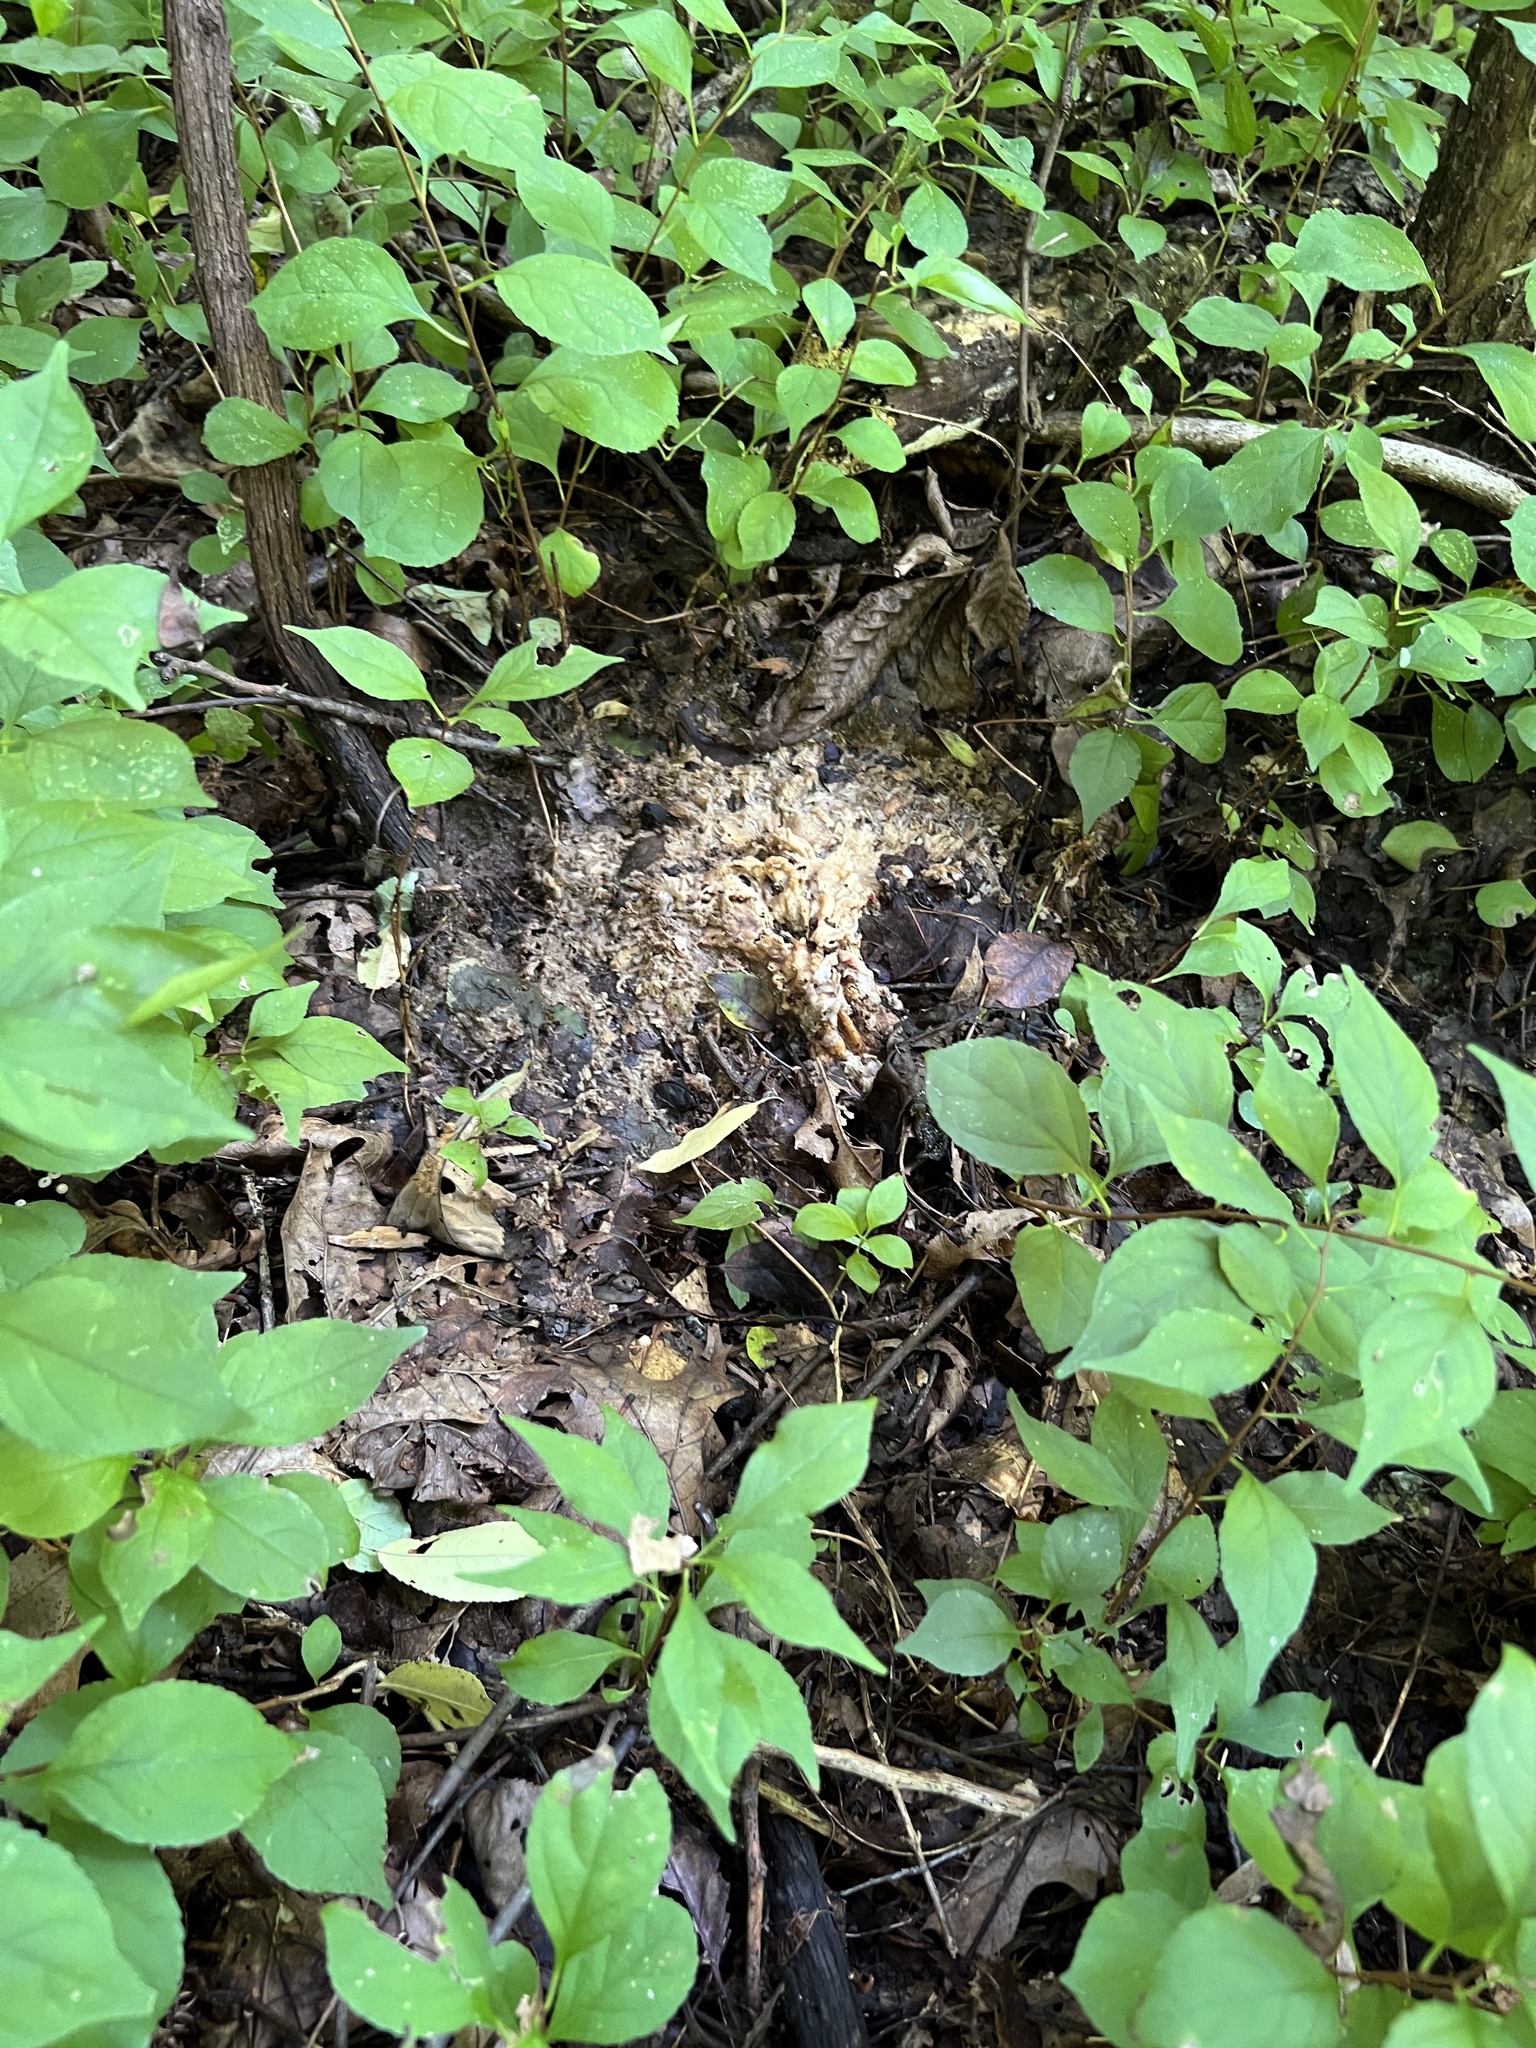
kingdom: Fungi
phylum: Basidiomycota
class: Agaricomycetes
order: Polyporales
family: Sparassidaceae
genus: Sparassis
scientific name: Sparassis spathulata
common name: Eastern cauliflower mushroom
